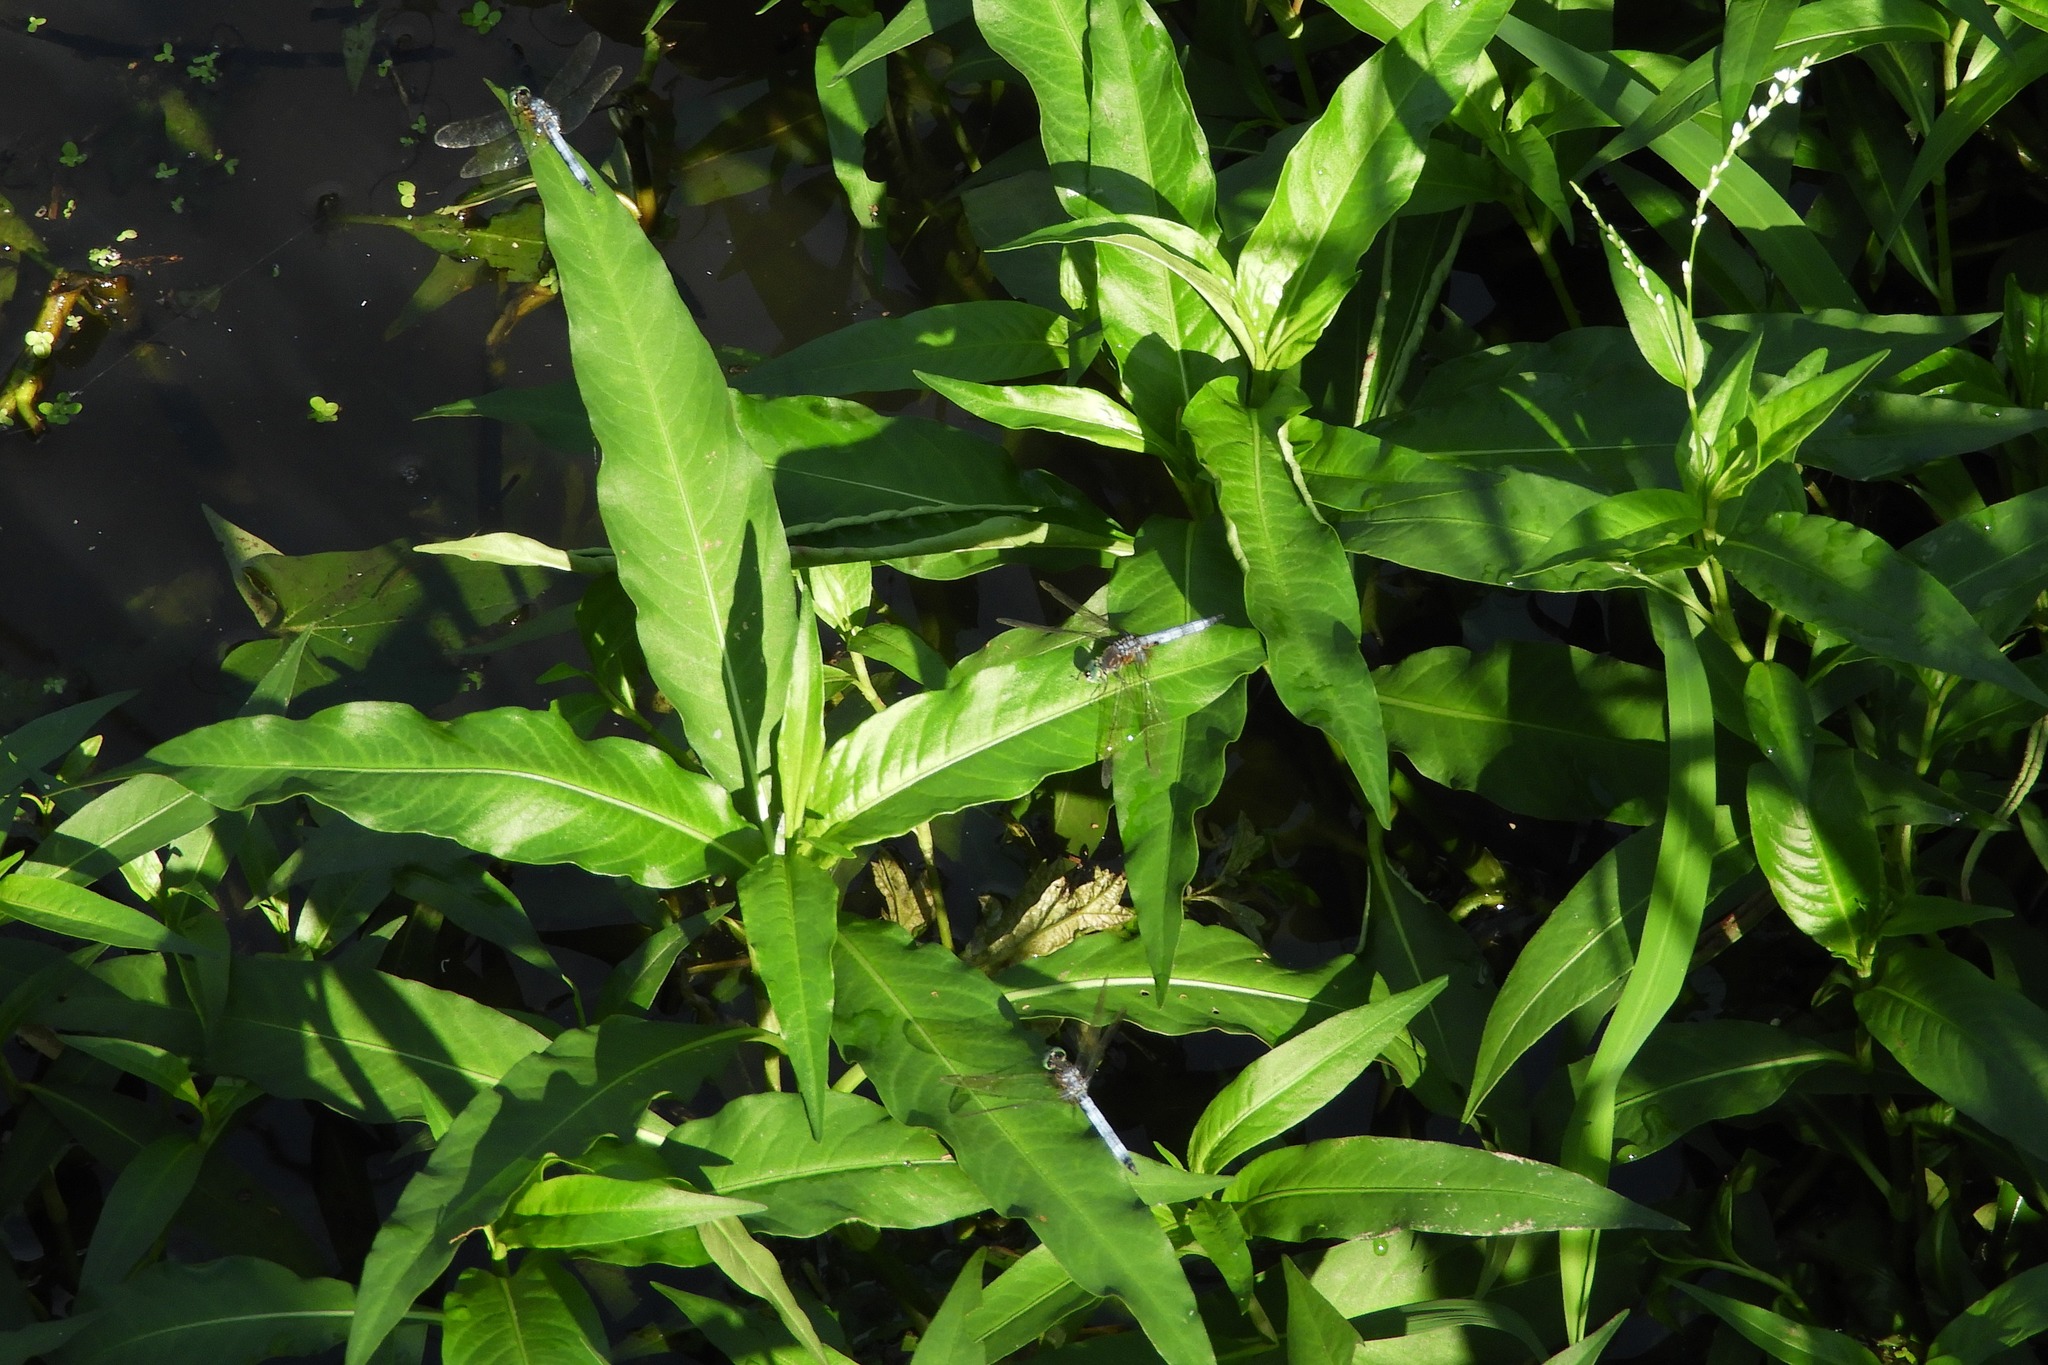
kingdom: Animalia
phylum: Arthropoda
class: Insecta
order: Odonata
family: Libellulidae
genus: Pachydiplax
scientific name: Pachydiplax longipennis
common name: Blue dasher
